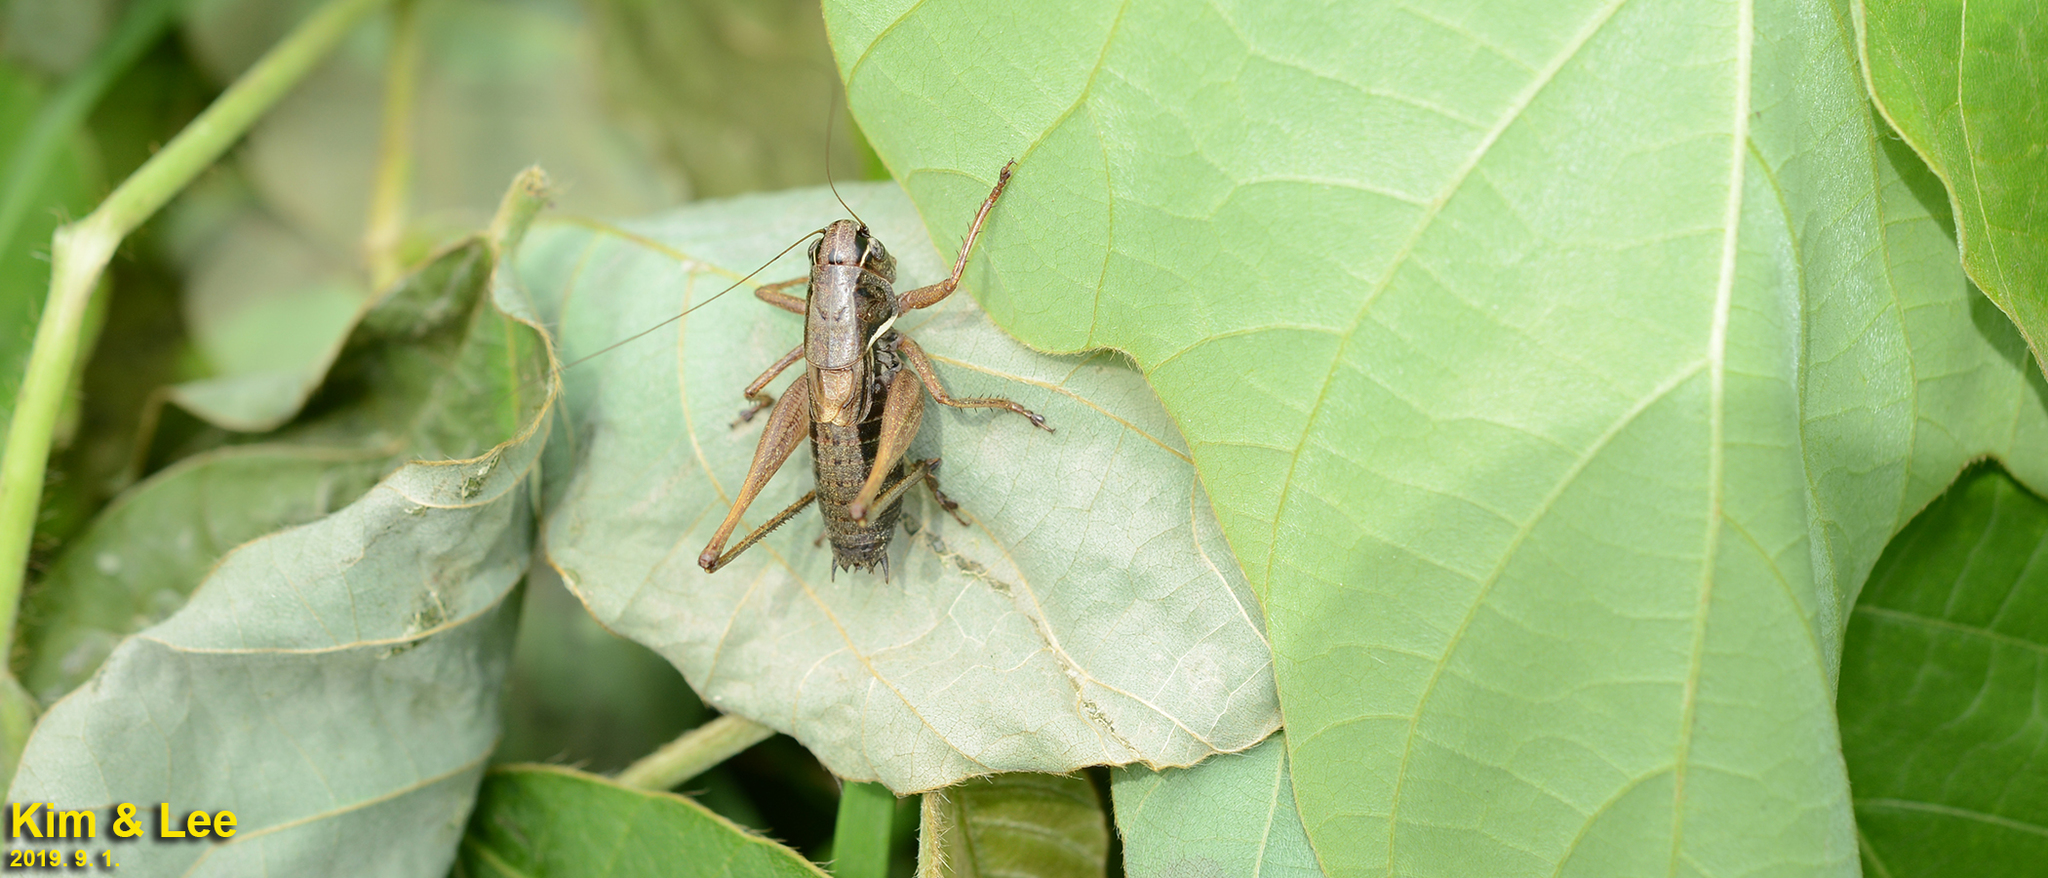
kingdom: Animalia
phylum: Arthropoda
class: Insecta
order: Orthoptera
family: Tettigoniidae
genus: Chizuella
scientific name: Chizuella bonneti
